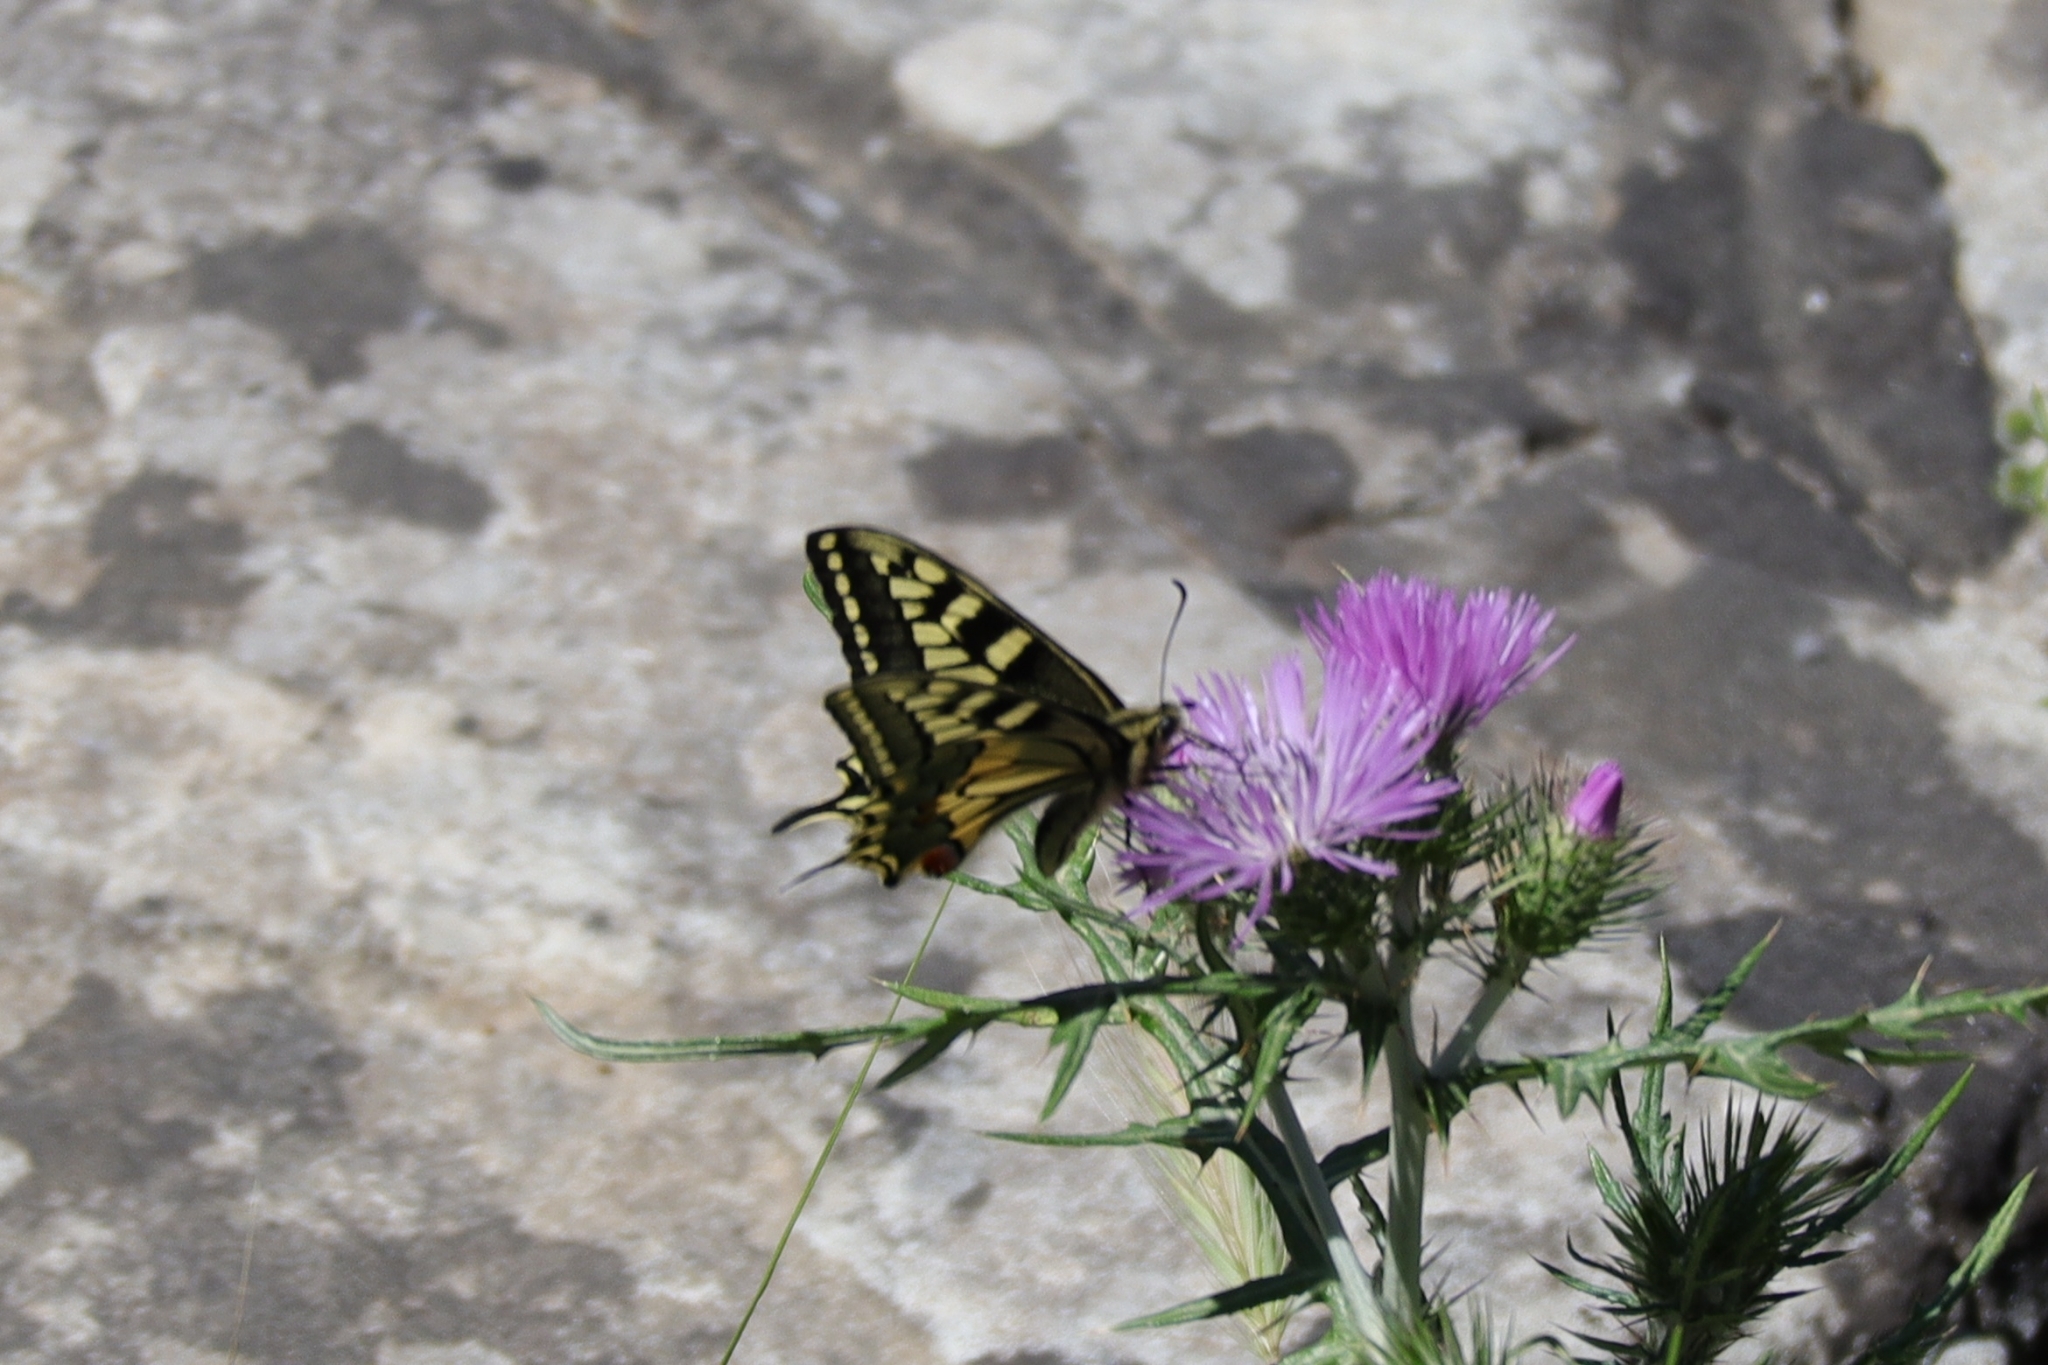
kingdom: Animalia
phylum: Arthropoda
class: Insecta
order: Lepidoptera
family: Papilionidae
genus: Papilio
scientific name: Papilio machaon
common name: Swallowtail
